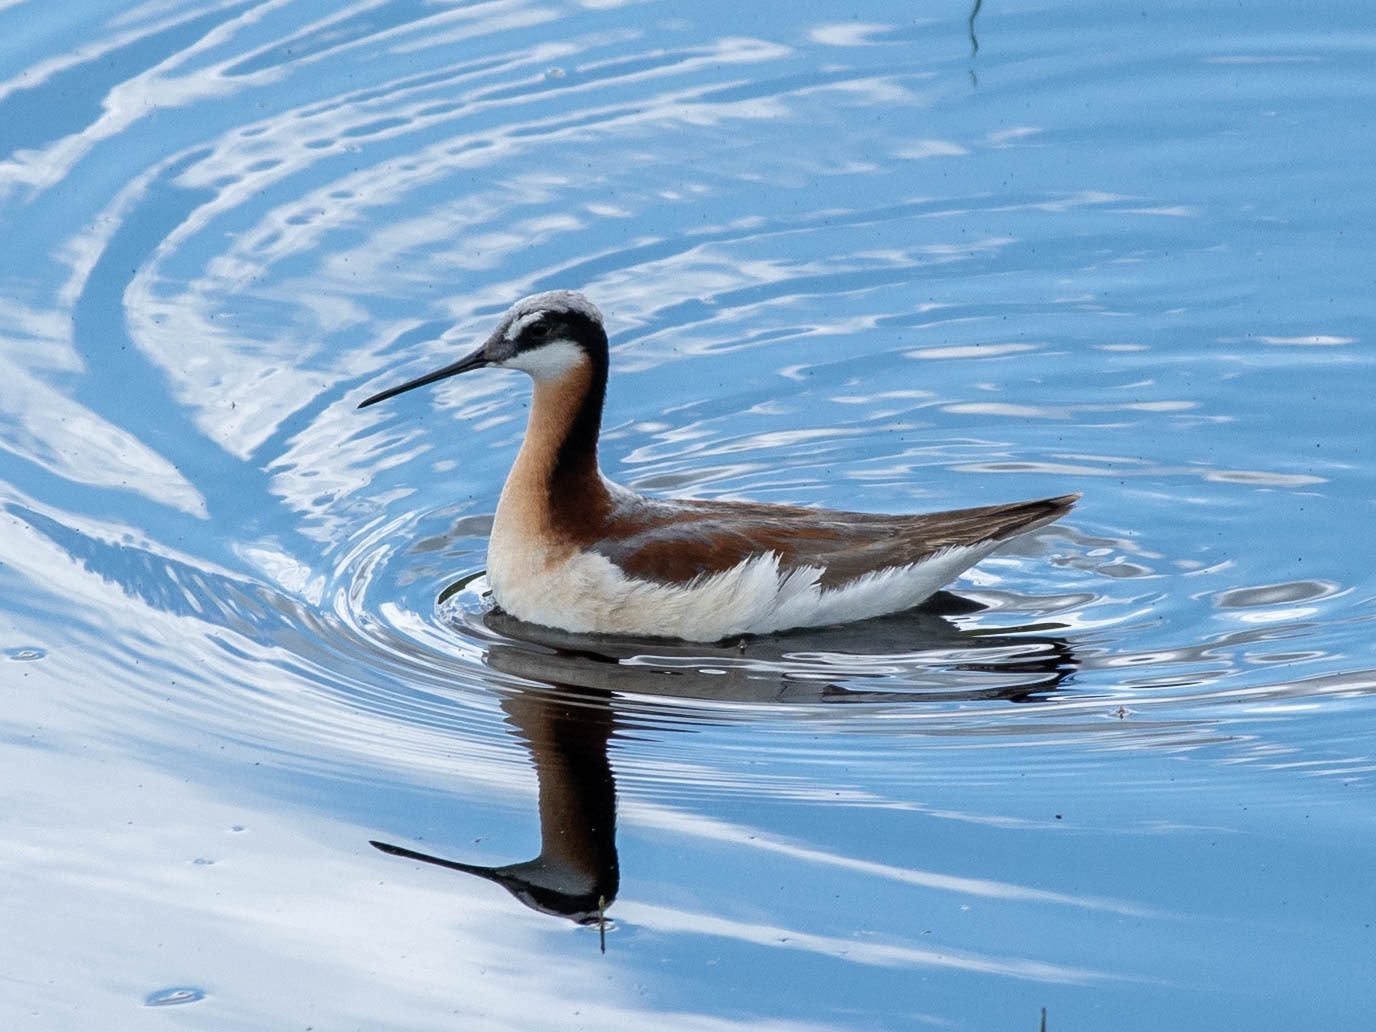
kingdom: Animalia
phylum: Chordata
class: Aves
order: Charadriiformes
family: Scolopacidae
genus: Phalaropus
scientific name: Phalaropus tricolor
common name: Wilson's phalarope
